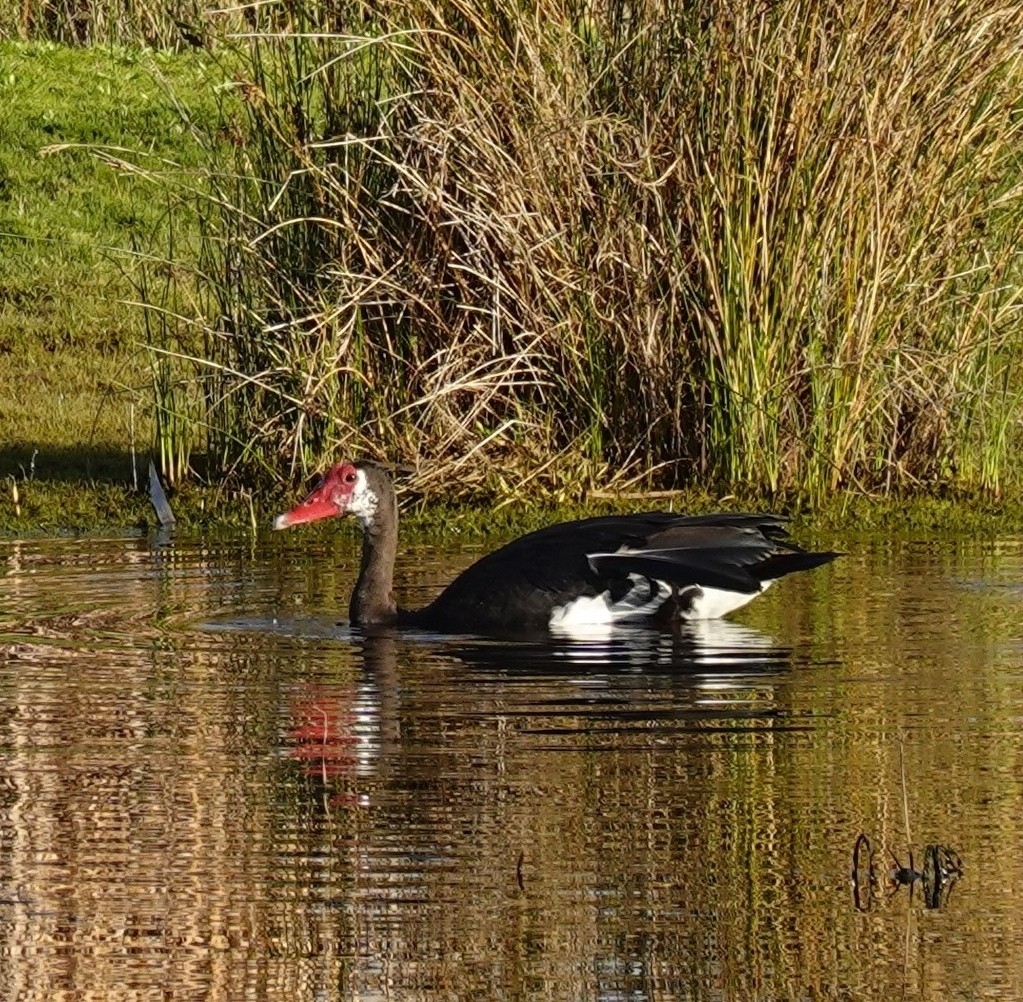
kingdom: Animalia
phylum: Chordata
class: Aves
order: Anseriformes
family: Anatidae
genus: Plectropterus
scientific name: Plectropterus gambensis
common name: Spur-winged goose
